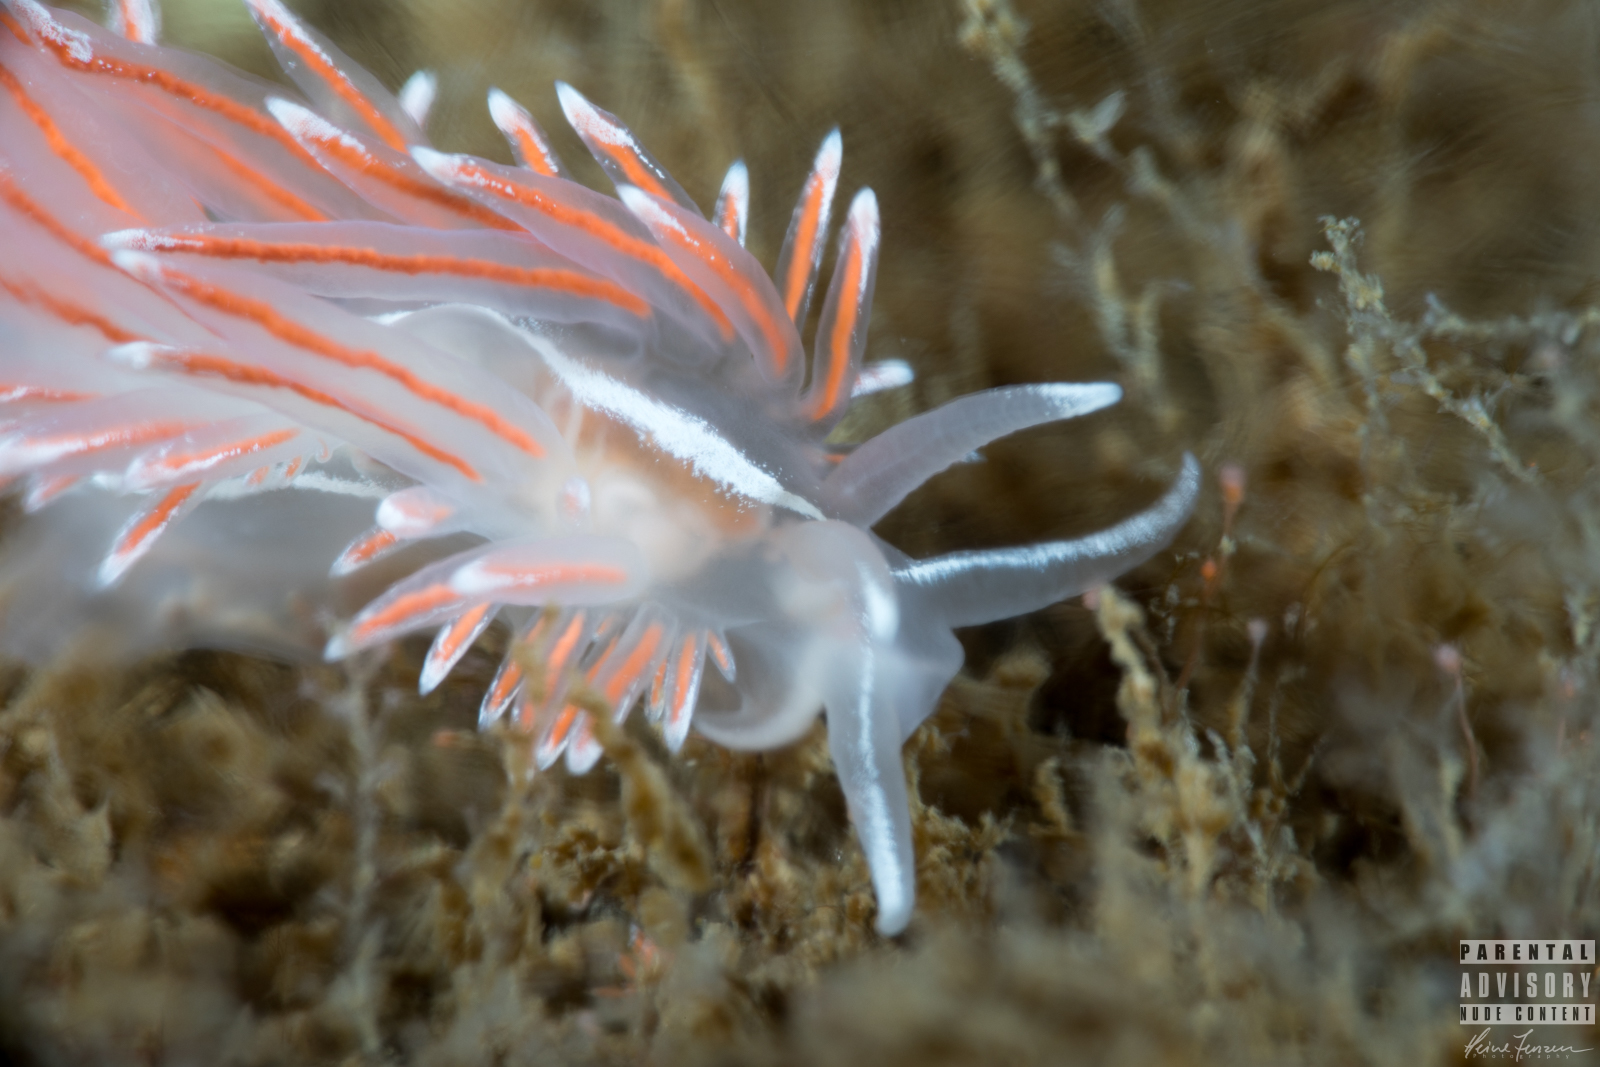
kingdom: Animalia
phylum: Mollusca
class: Gastropoda
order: Nudibranchia
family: Coryphellidae
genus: Coryphella
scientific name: Coryphella lineata
